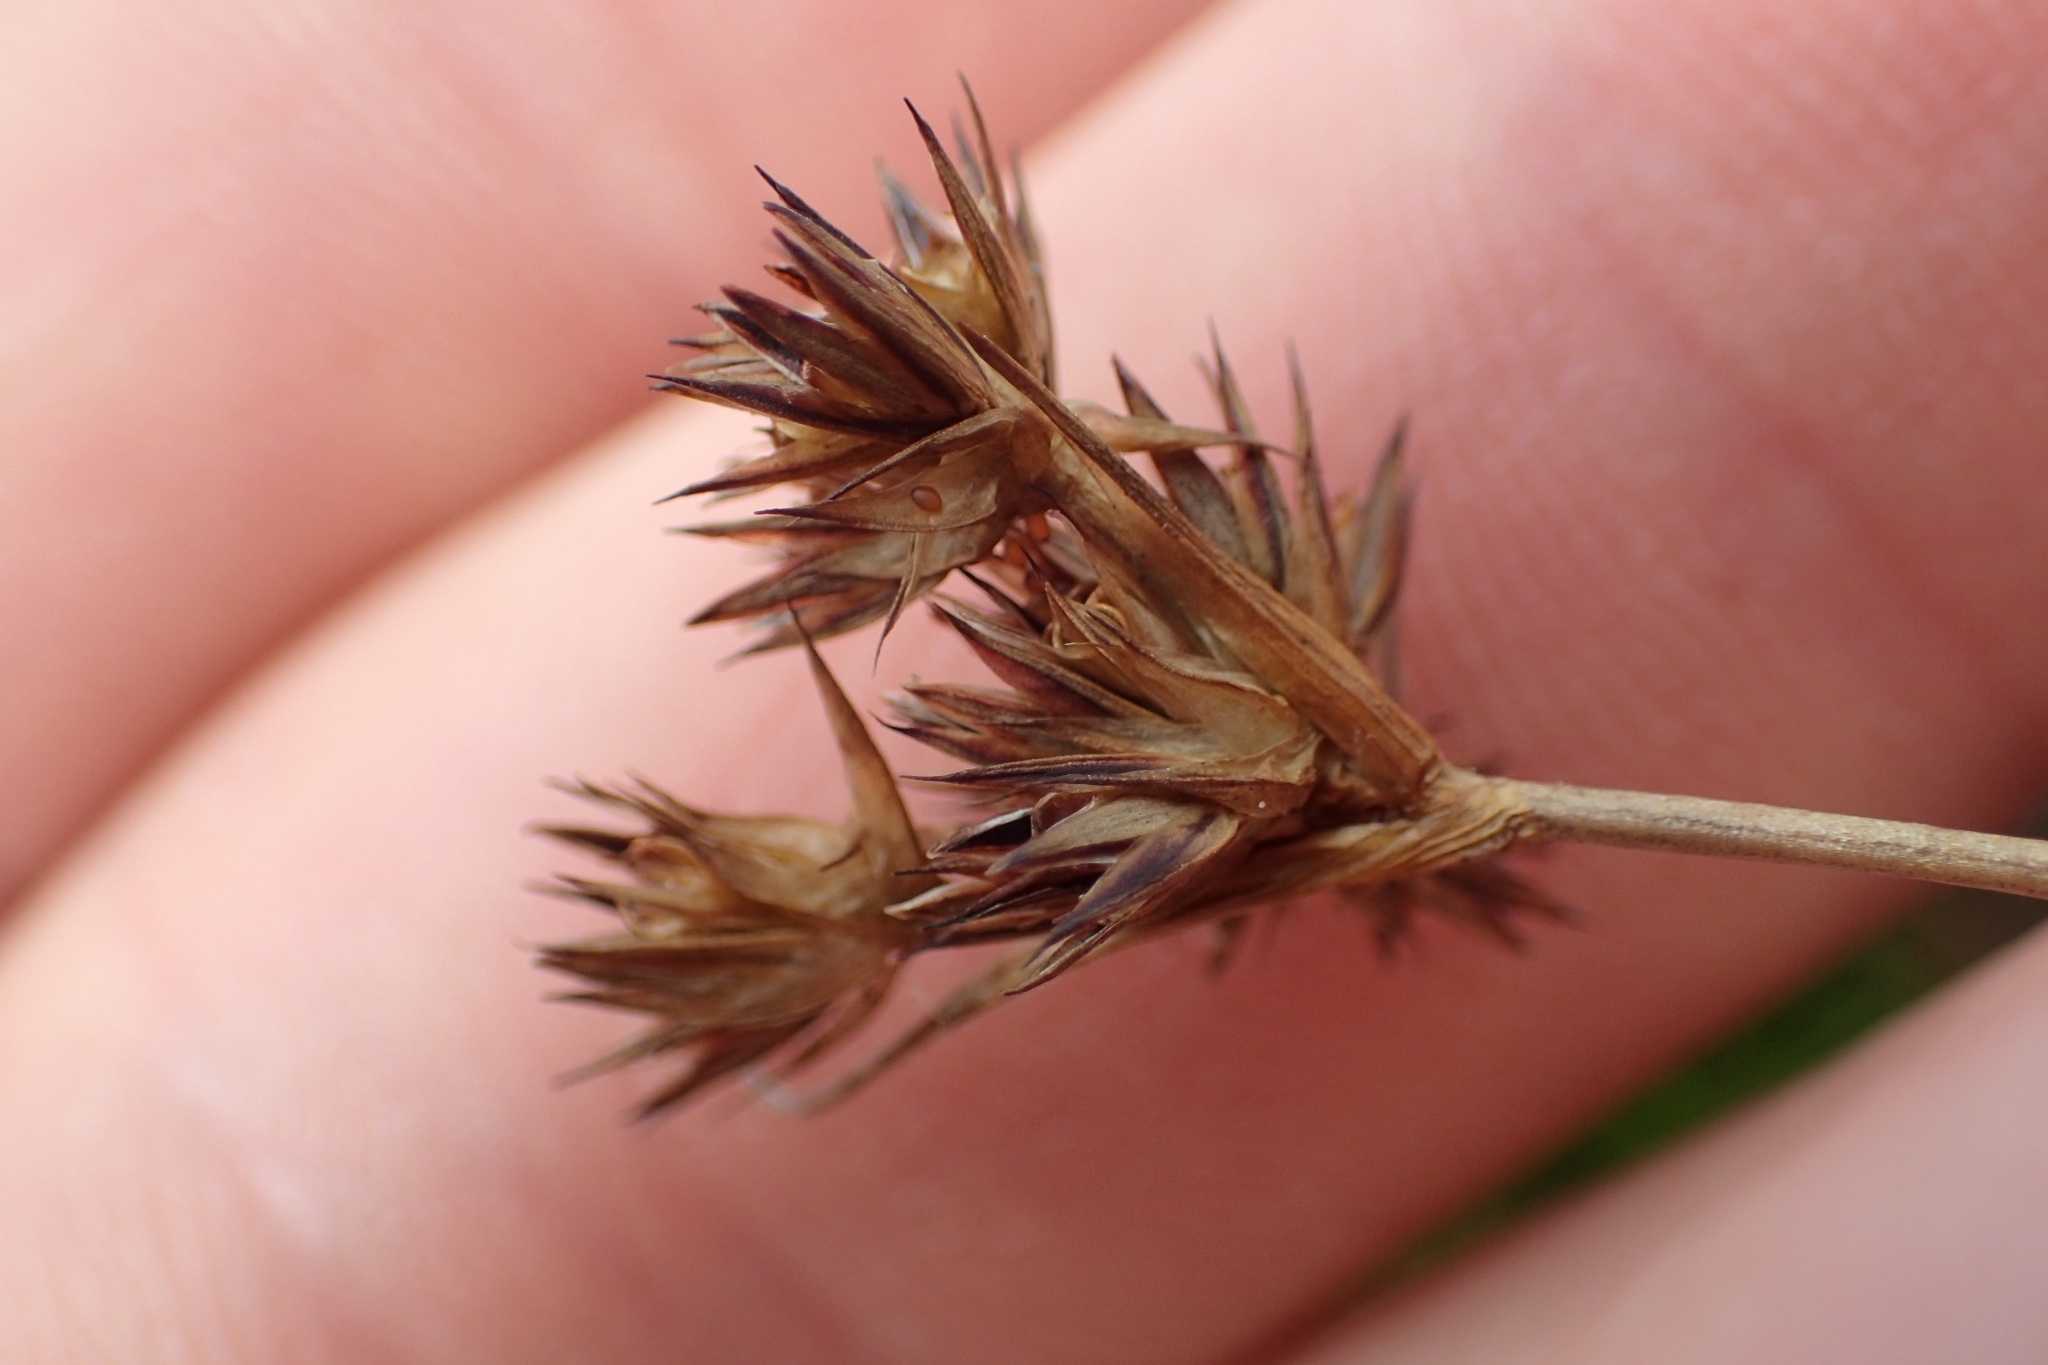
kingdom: Plantae
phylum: Tracheophyta
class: Liliopsida
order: Poales
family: Juncaceae
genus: Juncus
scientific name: Juncus sonderianus
